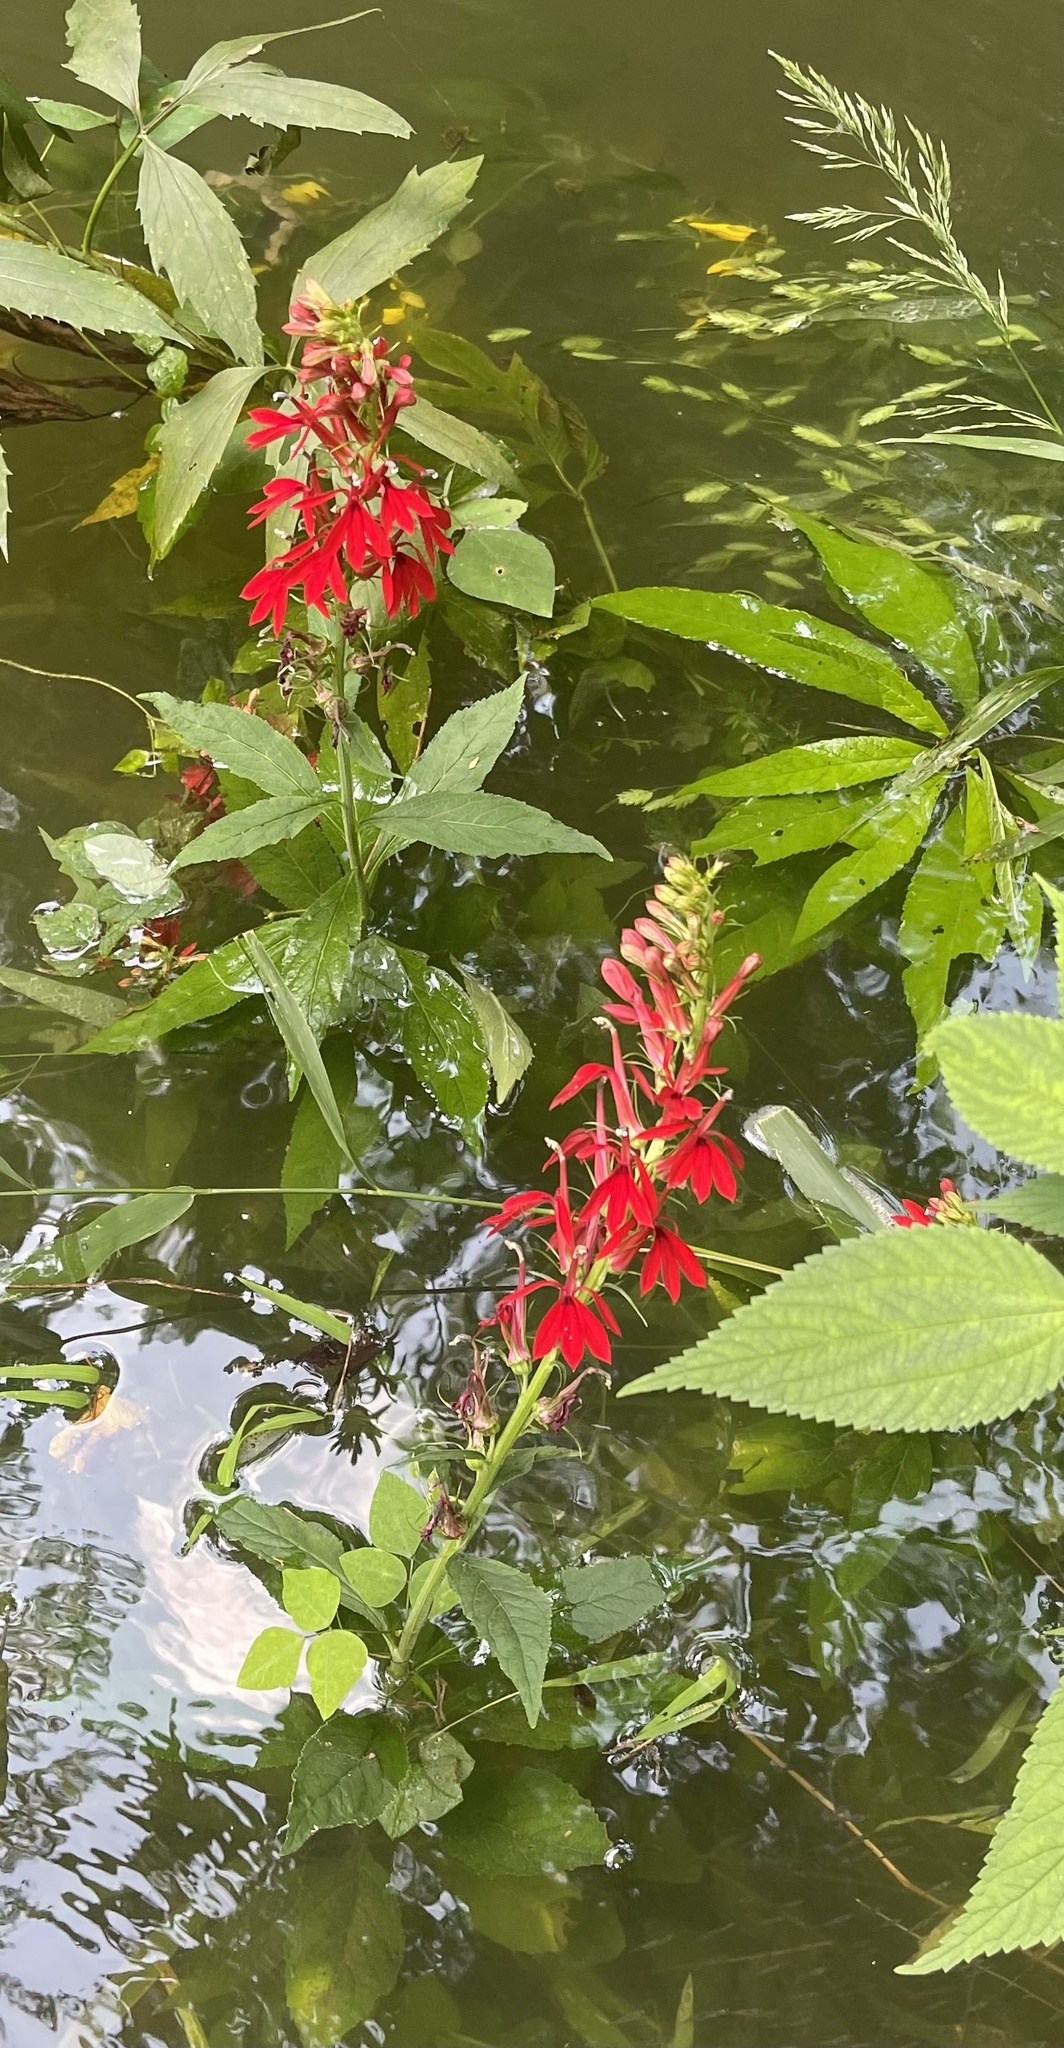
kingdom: Plantae
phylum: Tracheophyta
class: Magnoliopsida
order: Asterales
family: Campanulaceae
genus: Lobelia
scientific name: Lobelia cardinalis
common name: Cardinal flower
